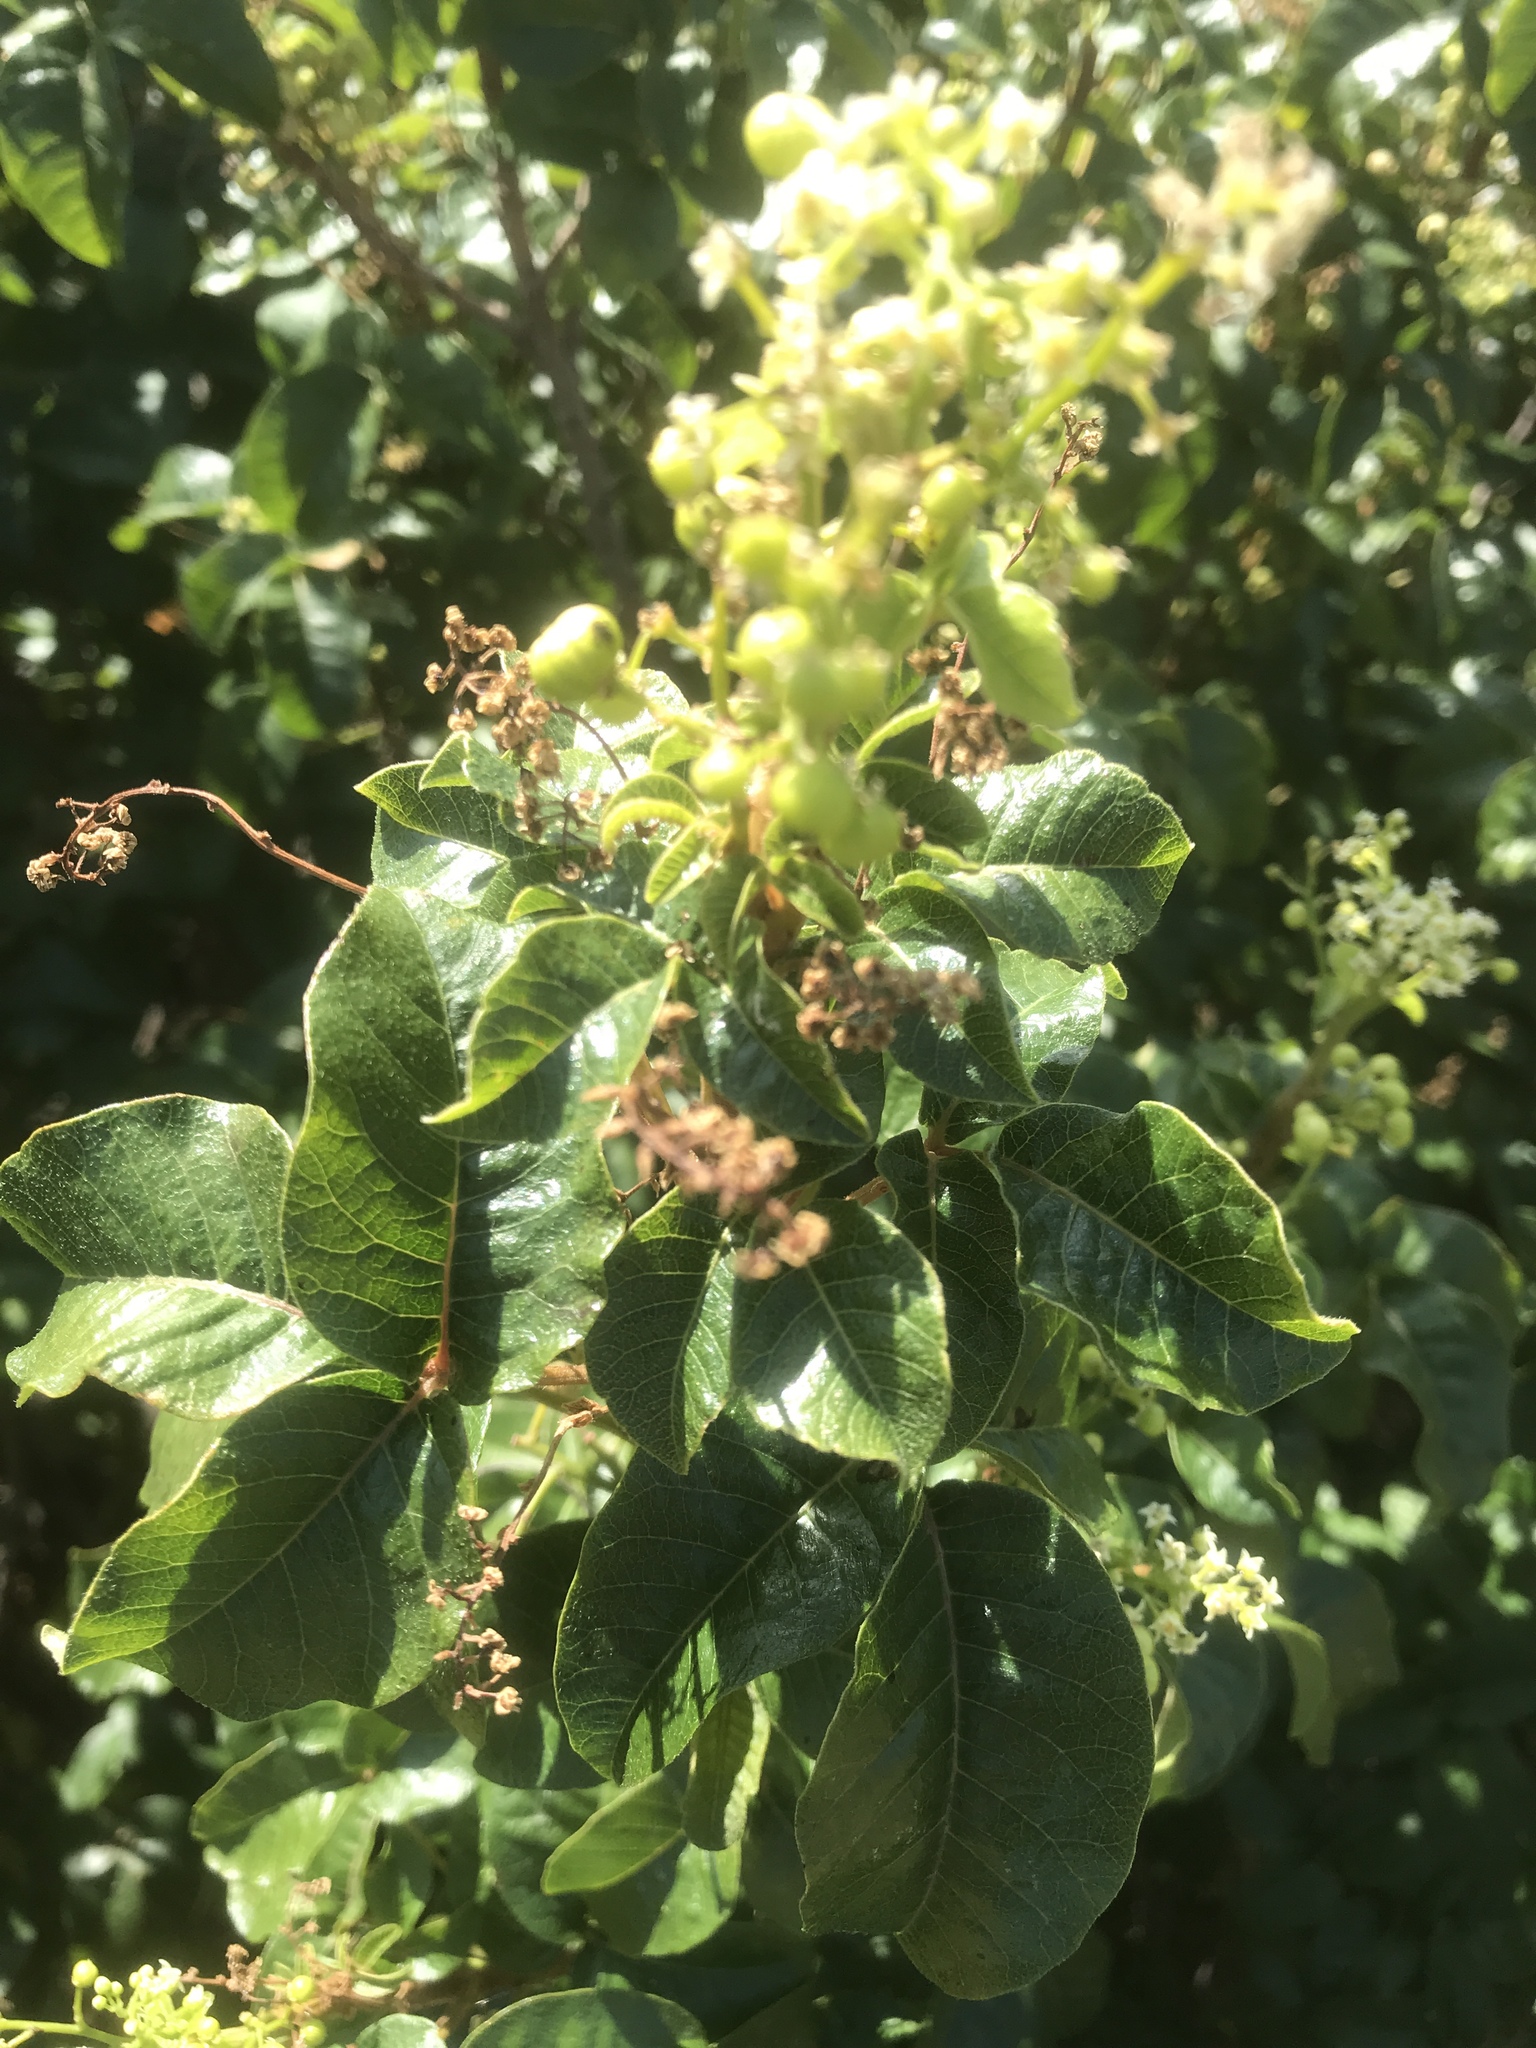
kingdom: Plantae
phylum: Tracheophyta
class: Magnoliopsida
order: Sapindales
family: Anacardiaceae
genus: Toxicodendron
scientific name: Toxicodendron diversilobum
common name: Pacific poison-oak
